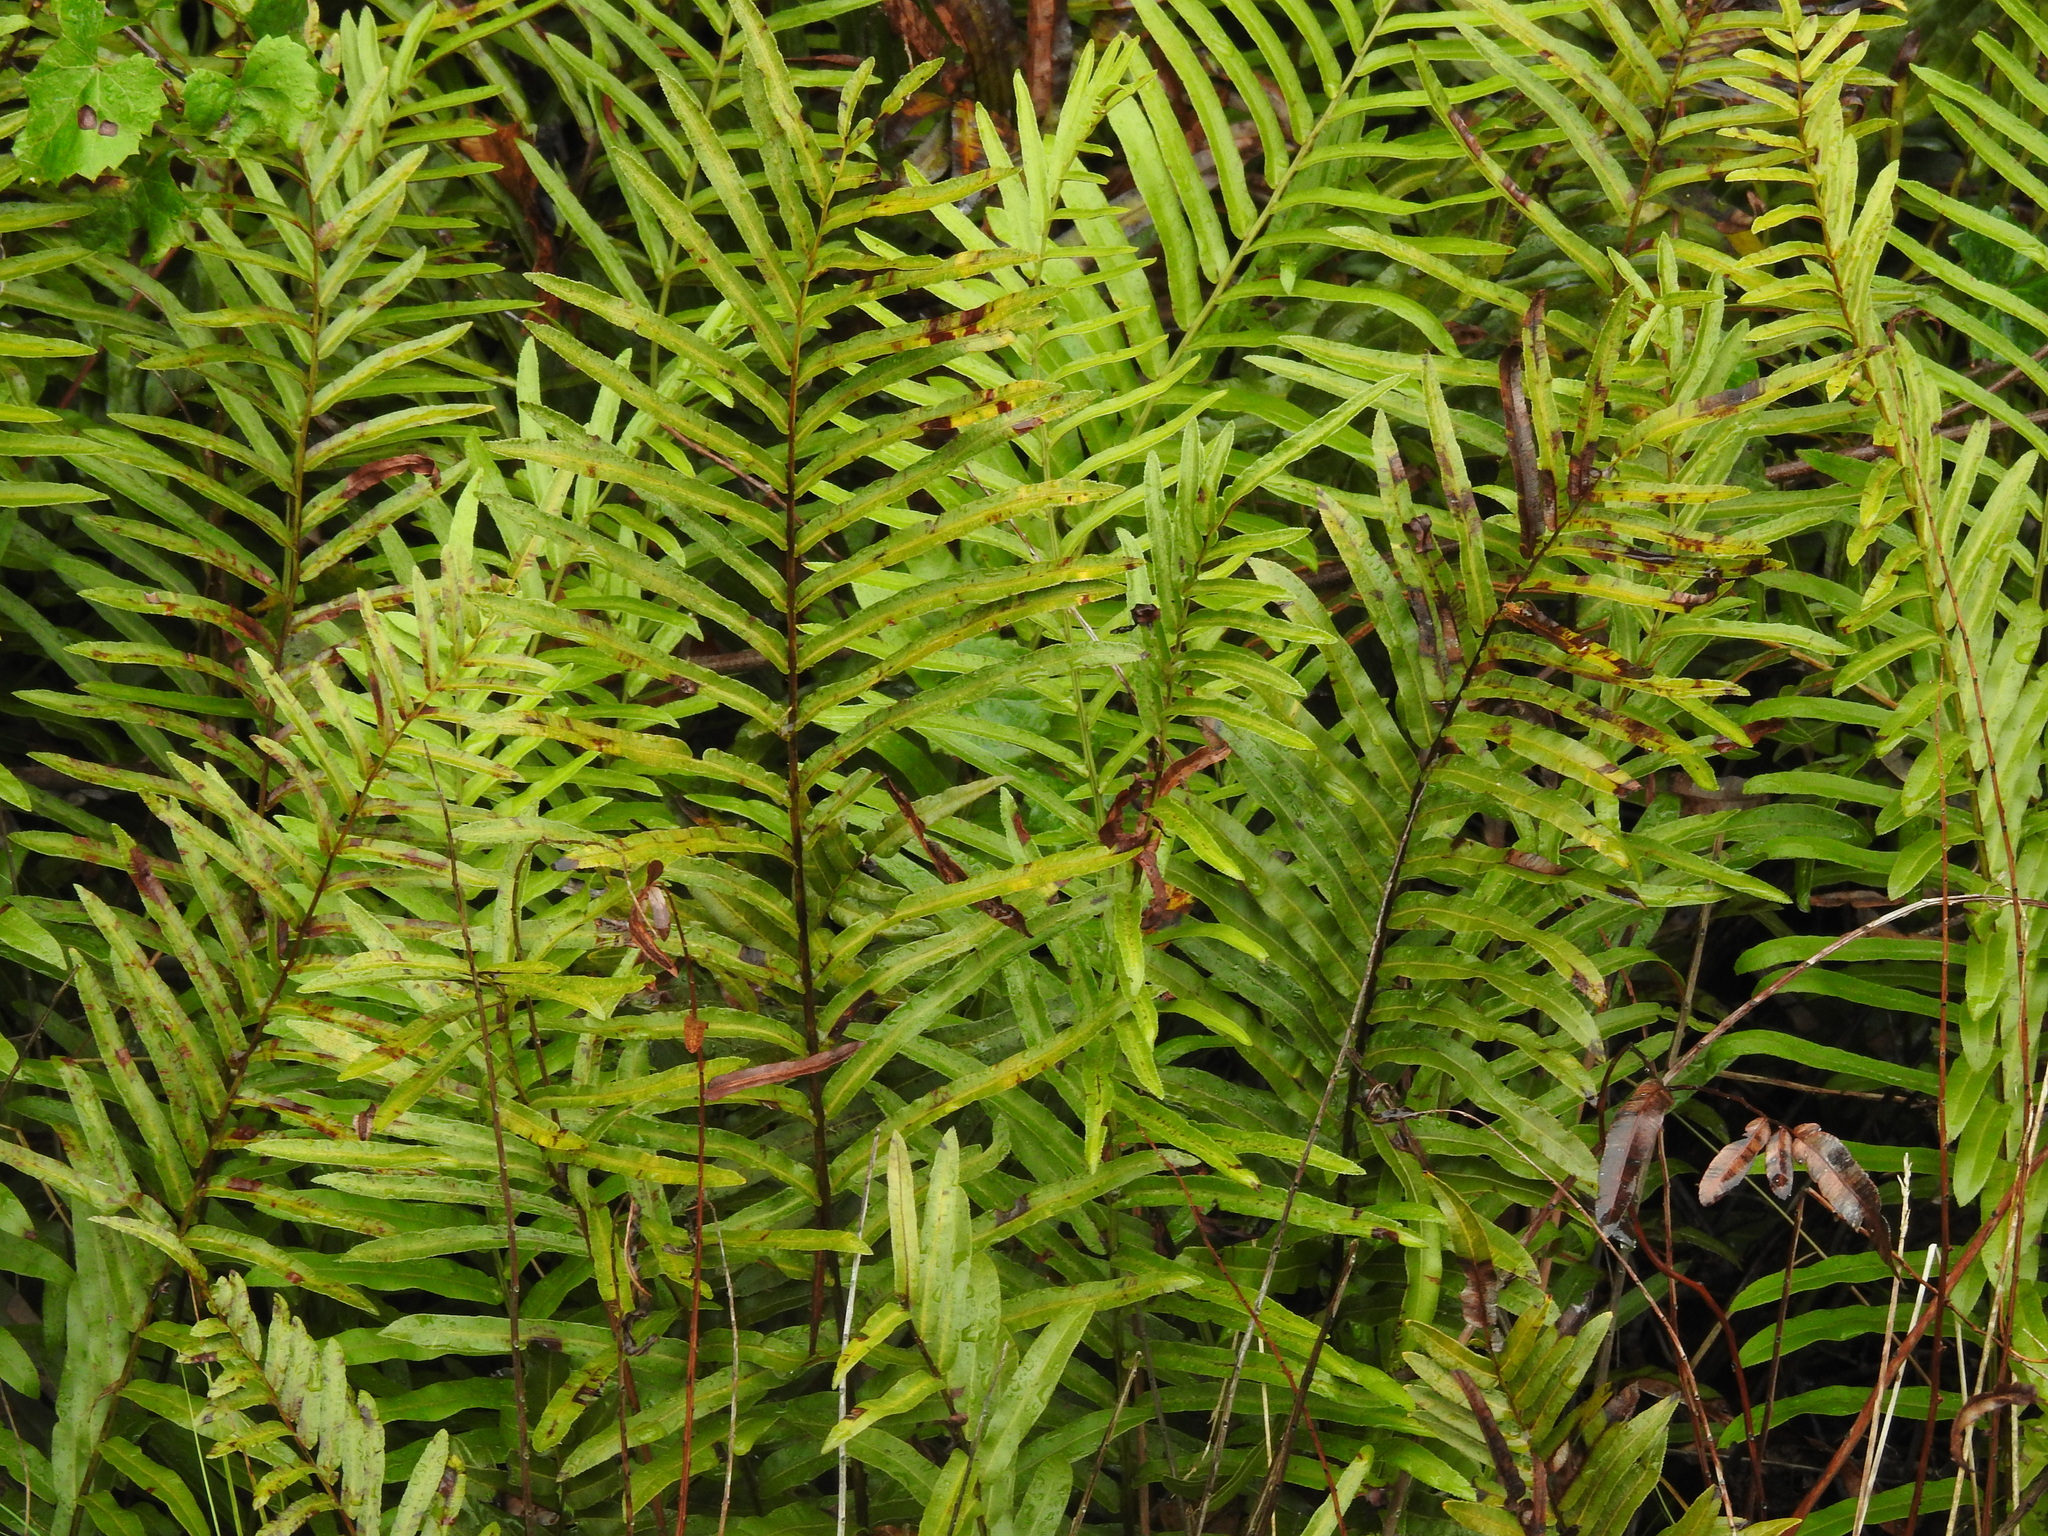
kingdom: Plantae
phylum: Tracheophyta
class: Polypodiopsida
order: Polypodiales
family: Blechnaceae
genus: Telmatoblechnum
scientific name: Telmatoblechnum serrulatum
